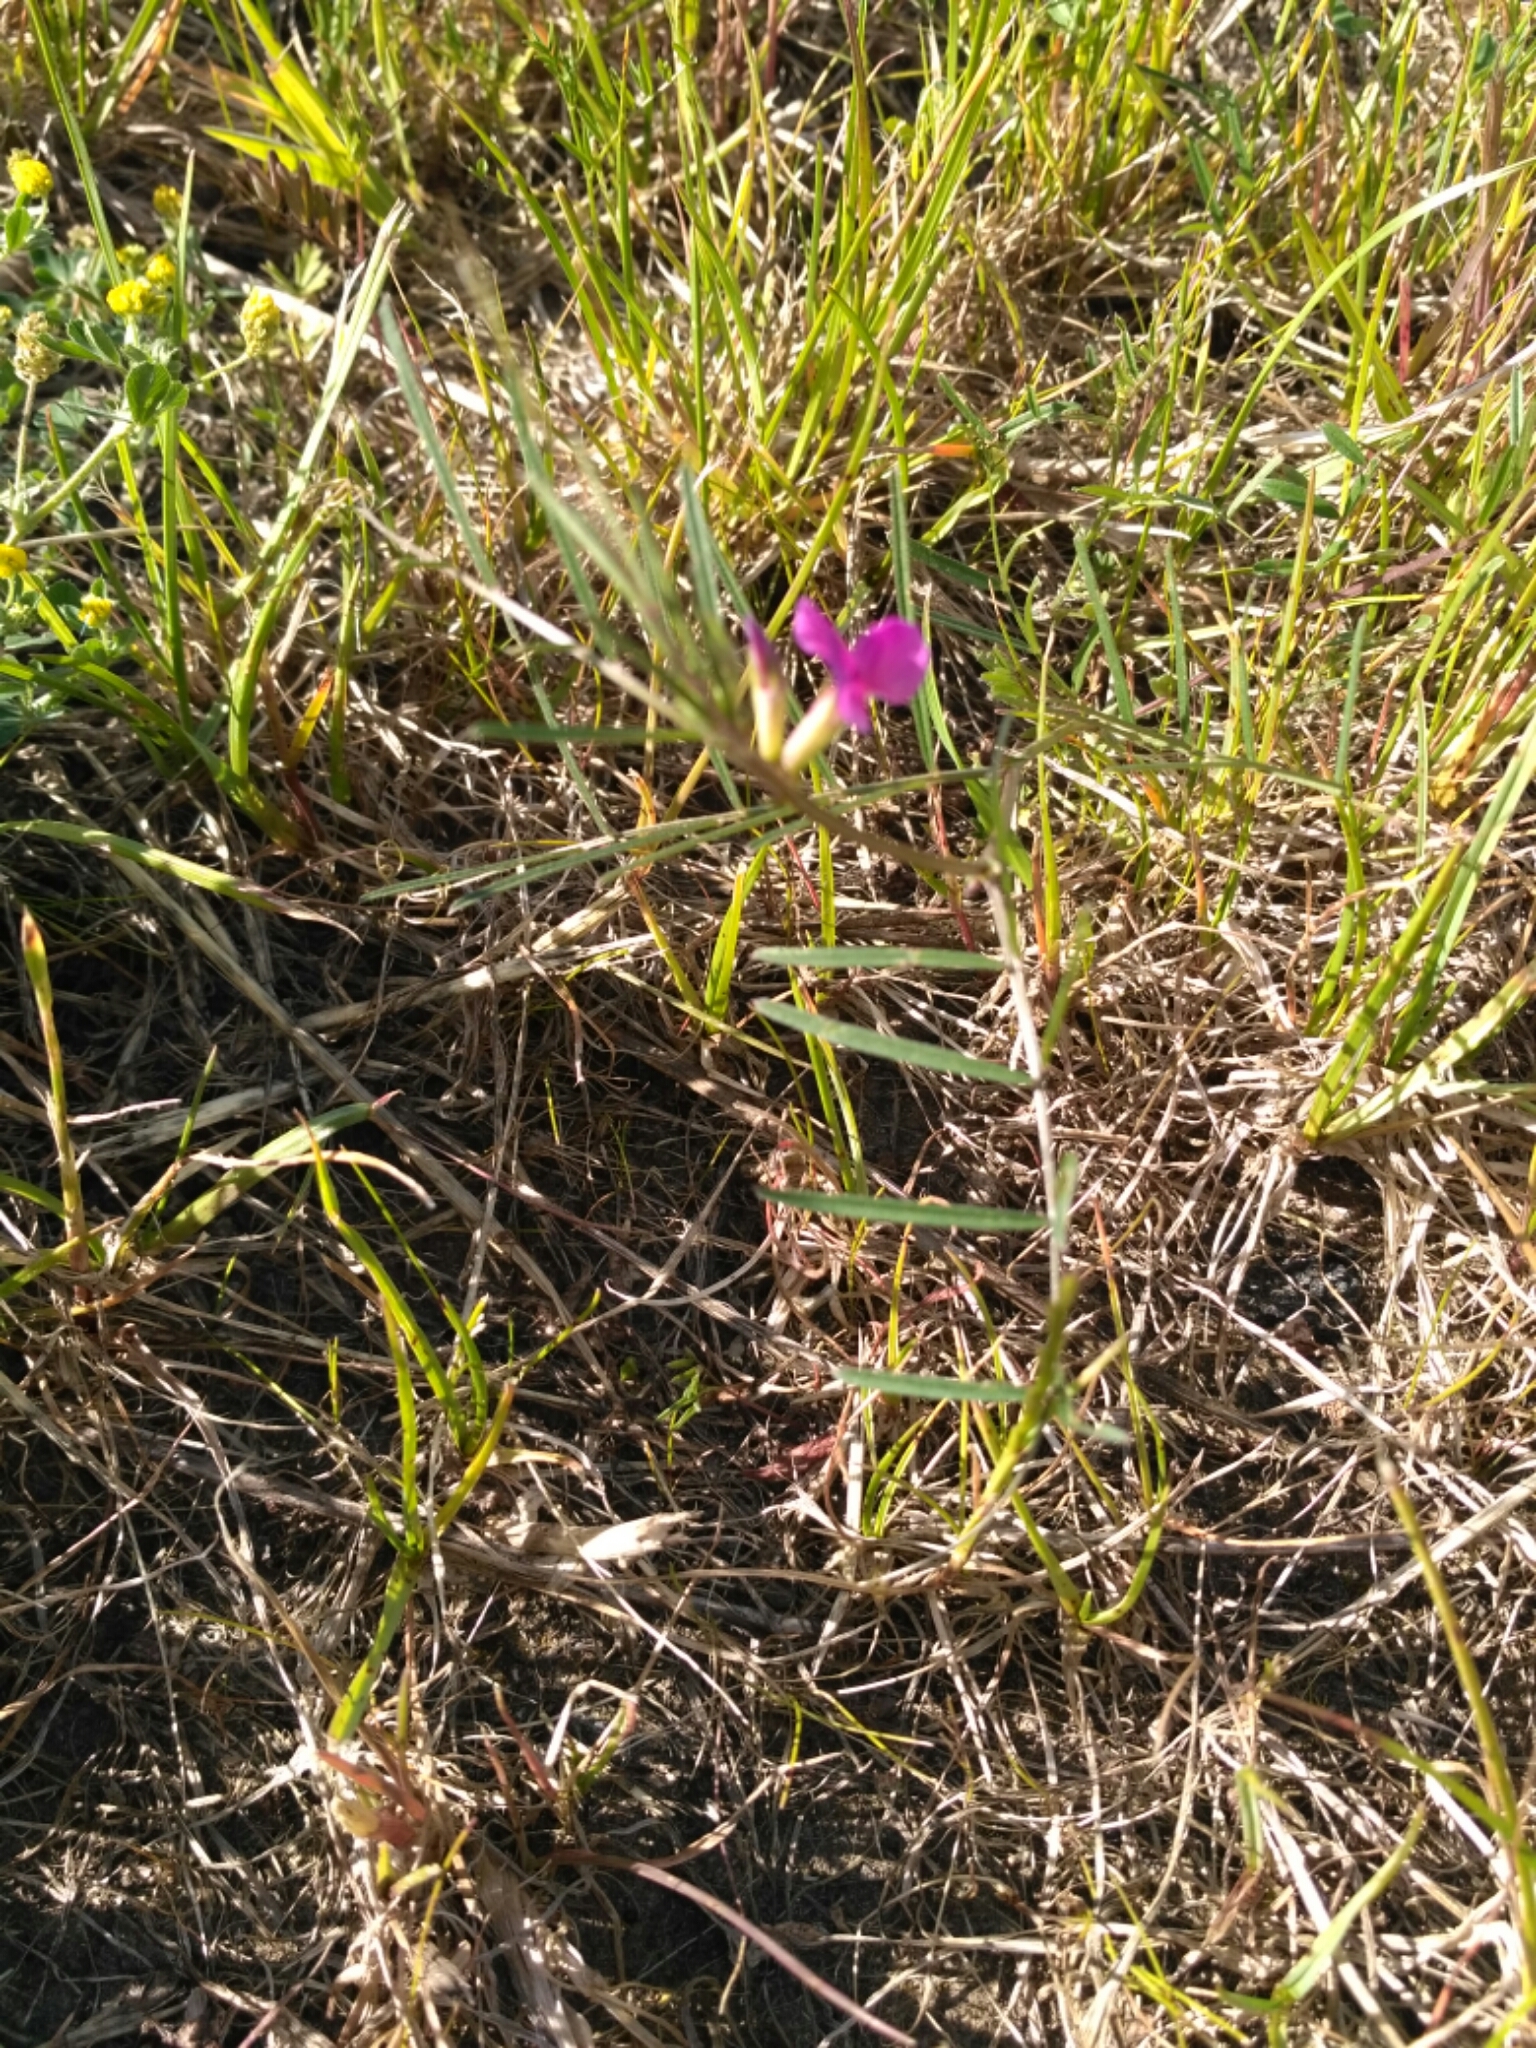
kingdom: Plantae
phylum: Tracheophyta
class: Magnoliopsida
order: Fabales
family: Fabaceae
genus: Vicia
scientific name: Vicia sativa
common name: Garden vetch
